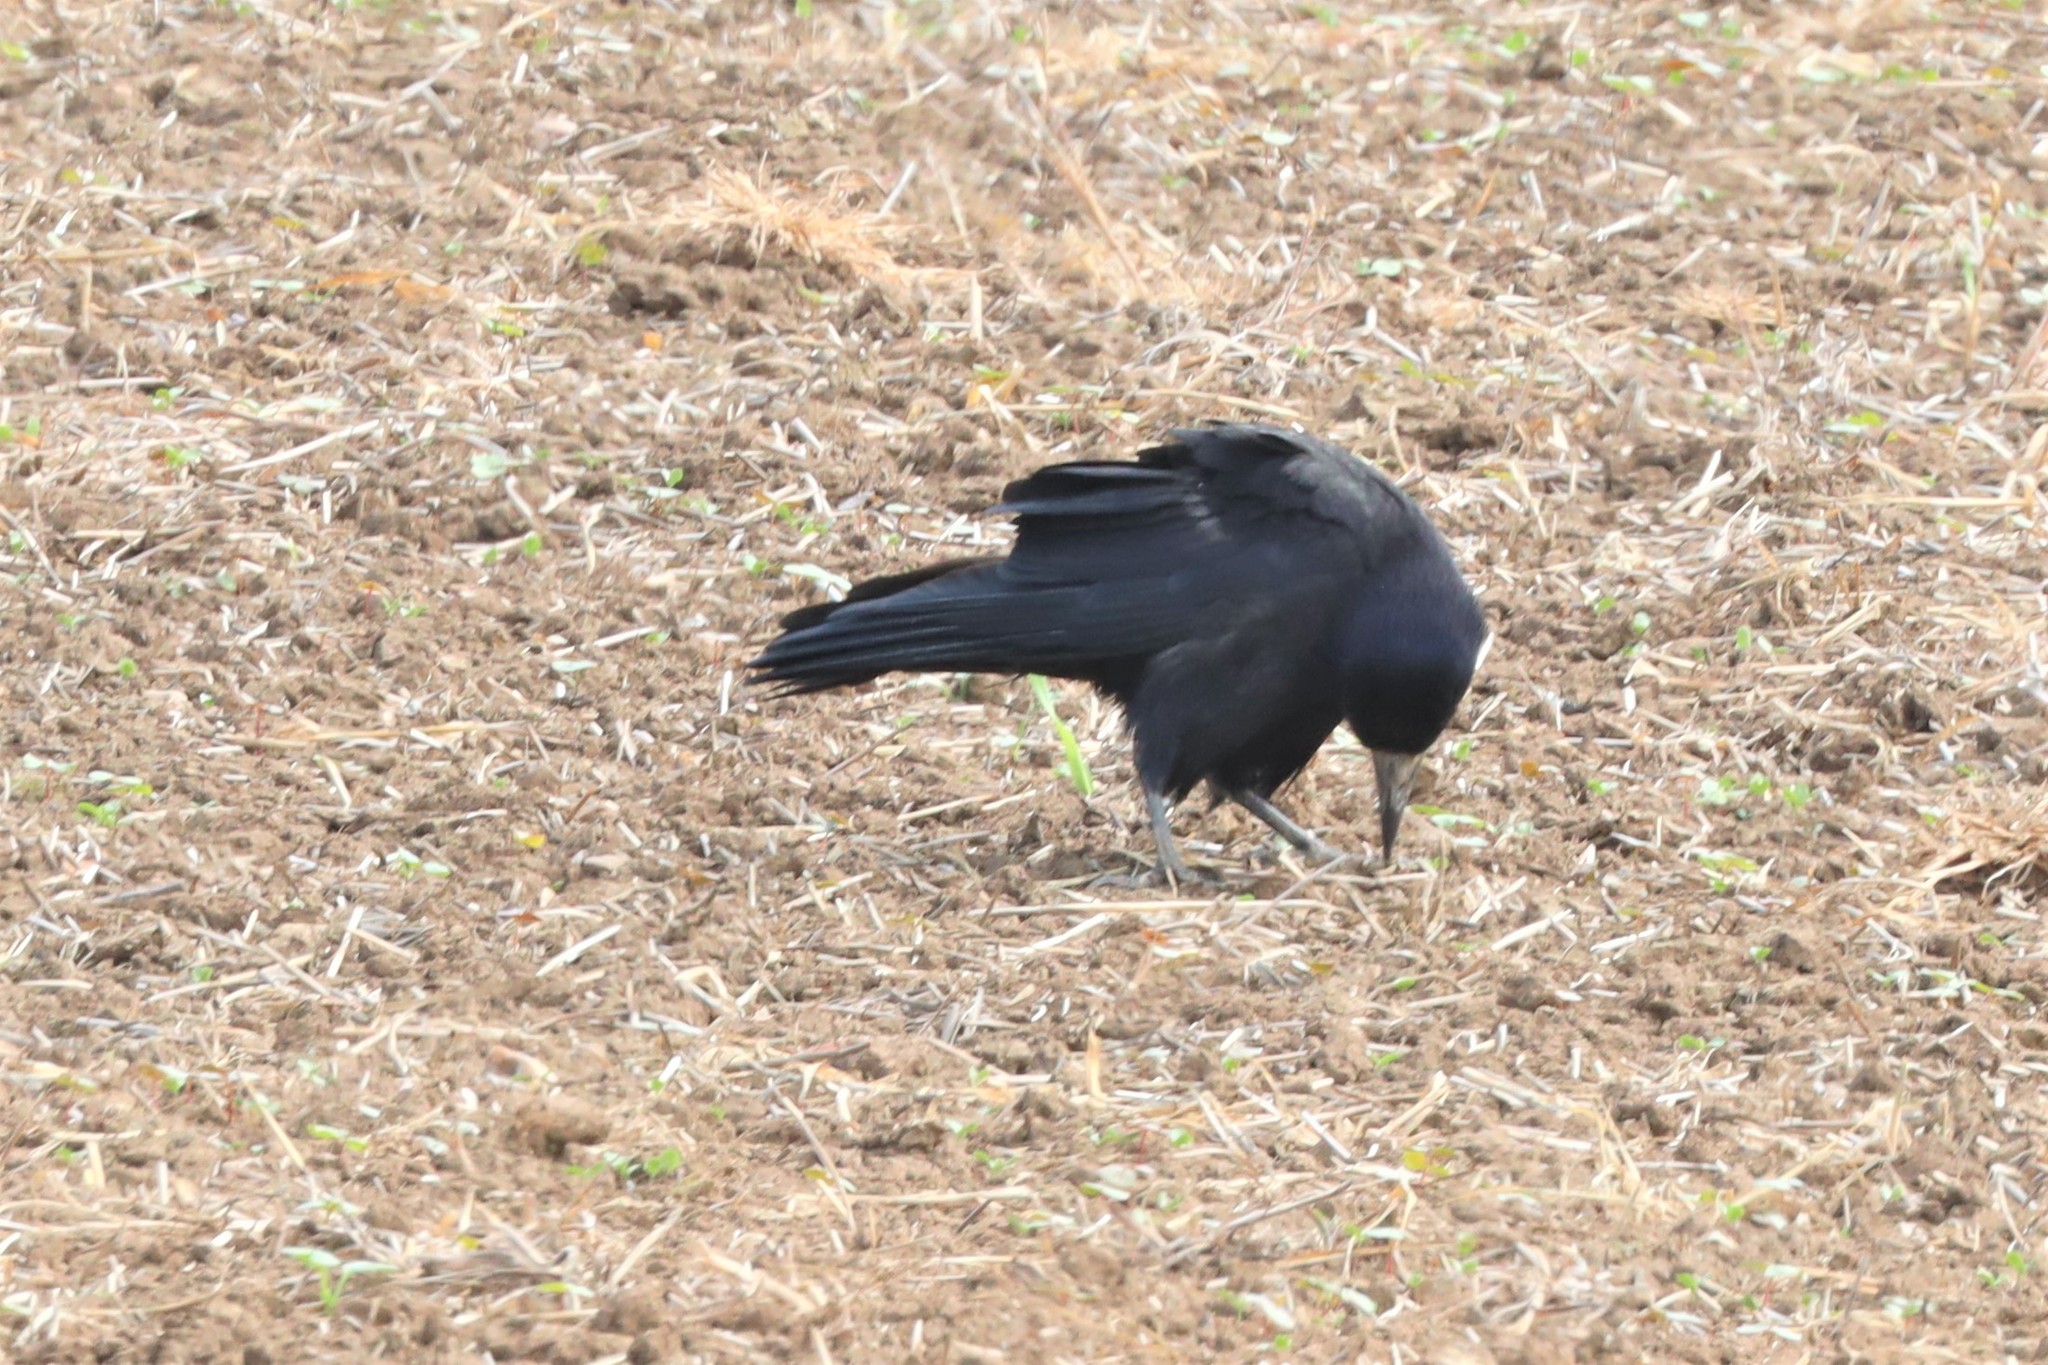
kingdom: Animalia
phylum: Chordata
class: Aves
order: Passeriformes
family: Corvidae
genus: Corvus
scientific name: Corvus frugilegus
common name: Rook
